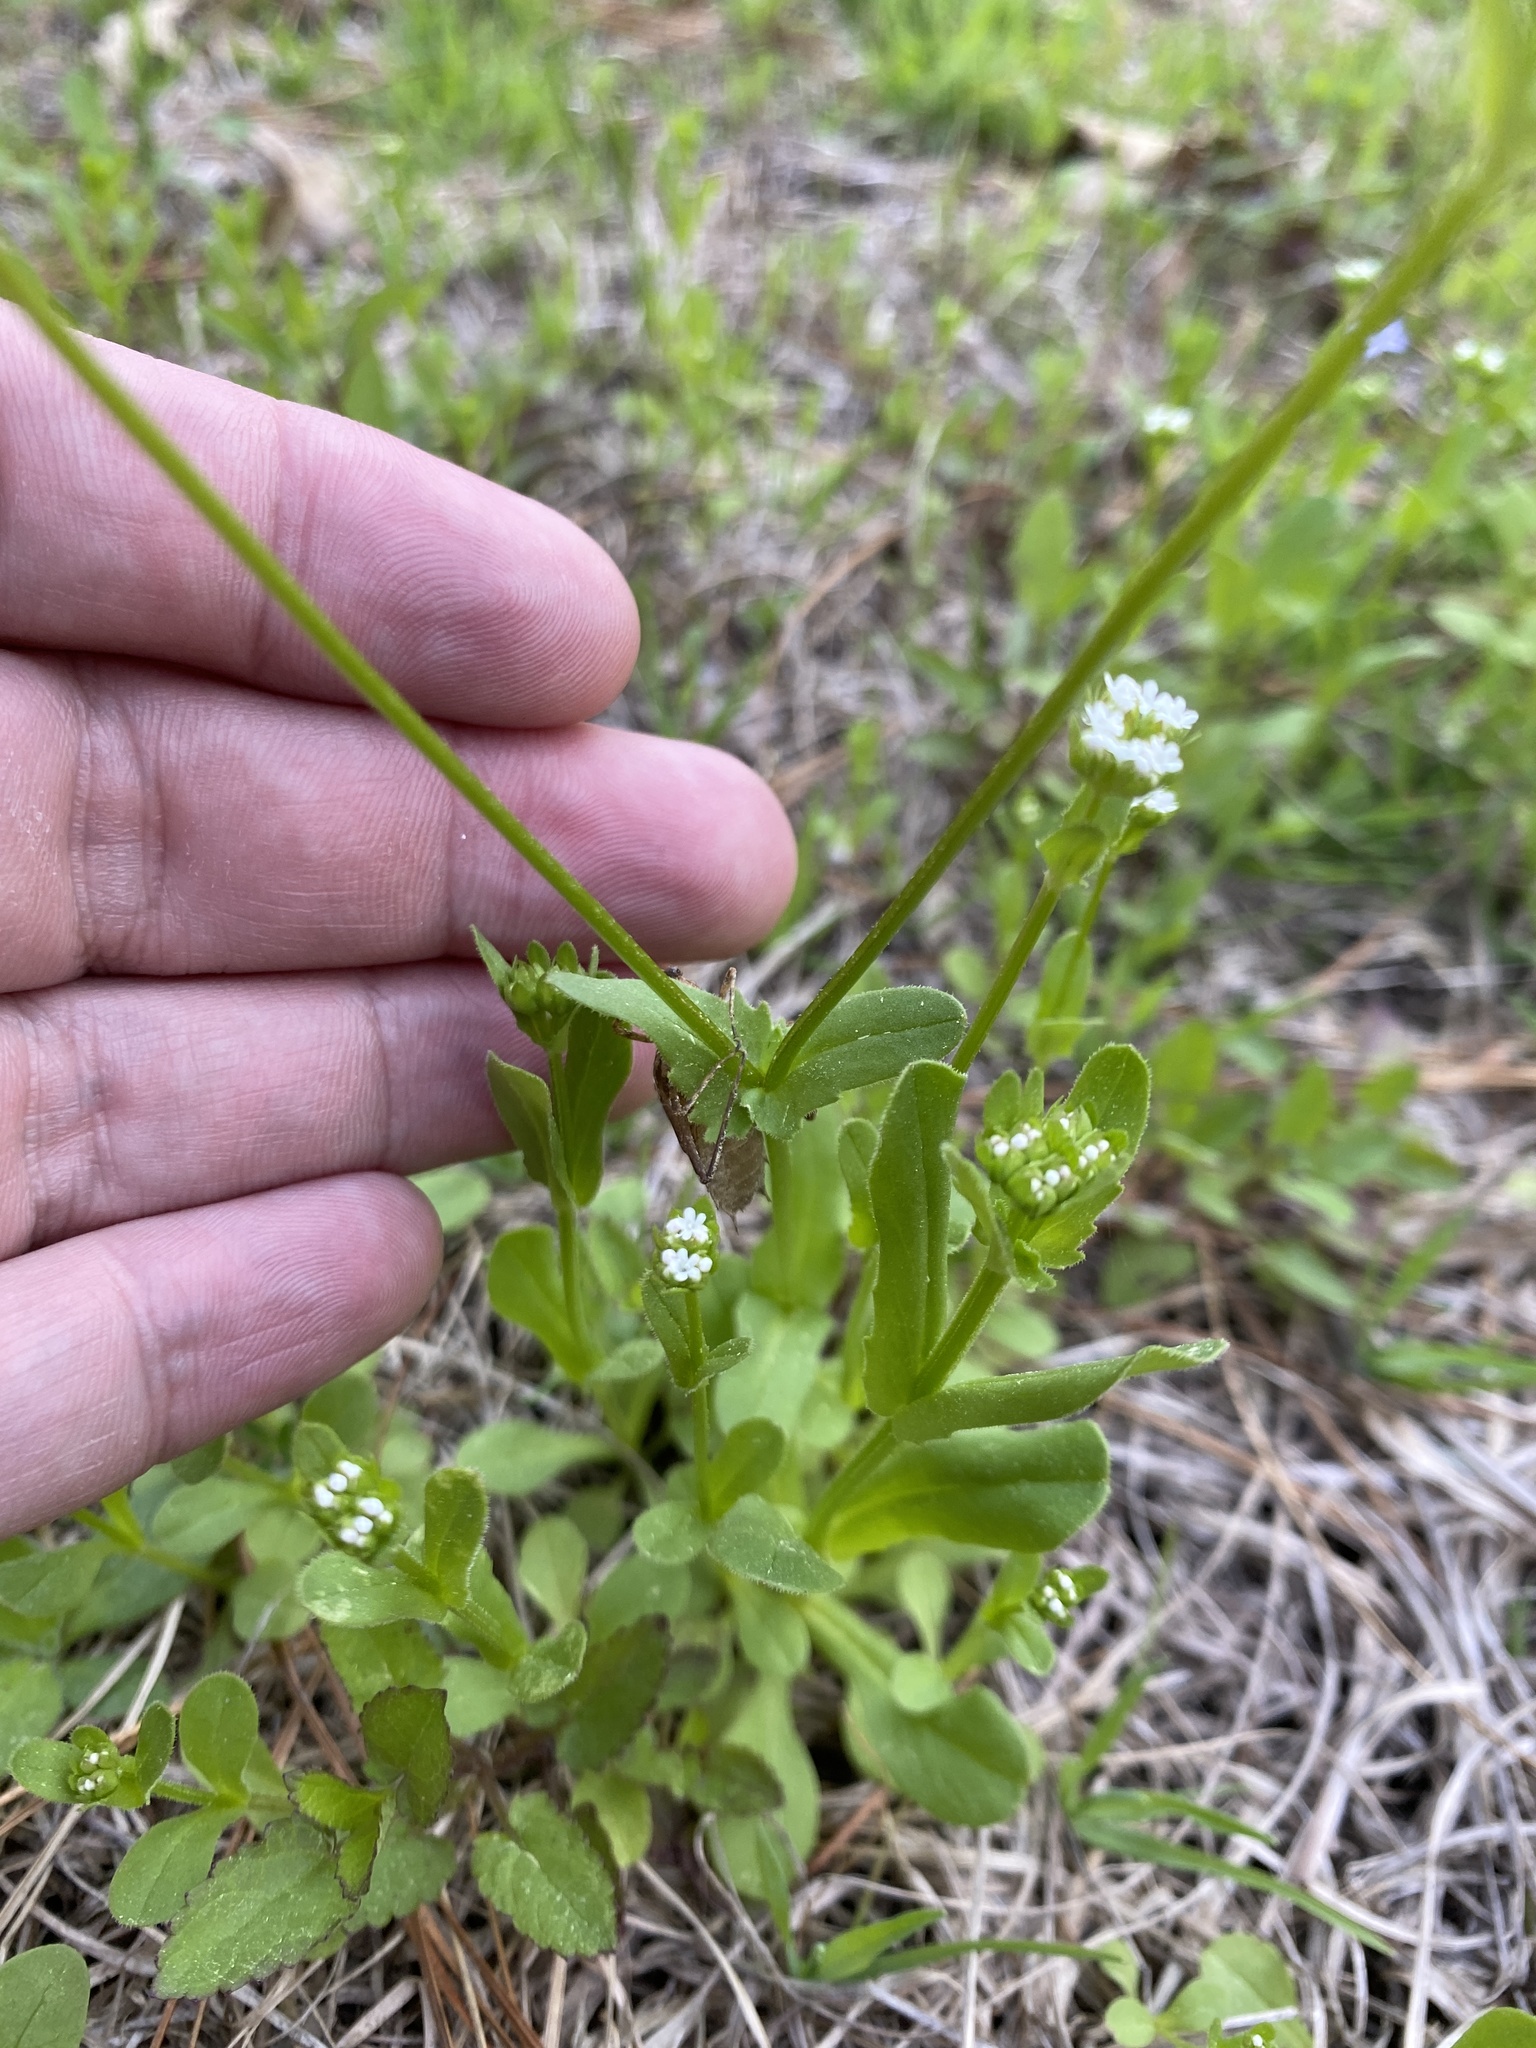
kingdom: Plantae
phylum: Tracheophyta
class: Magnoliopsida
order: Dipsacales
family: Caprifoliaceae
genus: Valerianella
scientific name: Valerianella radiata
